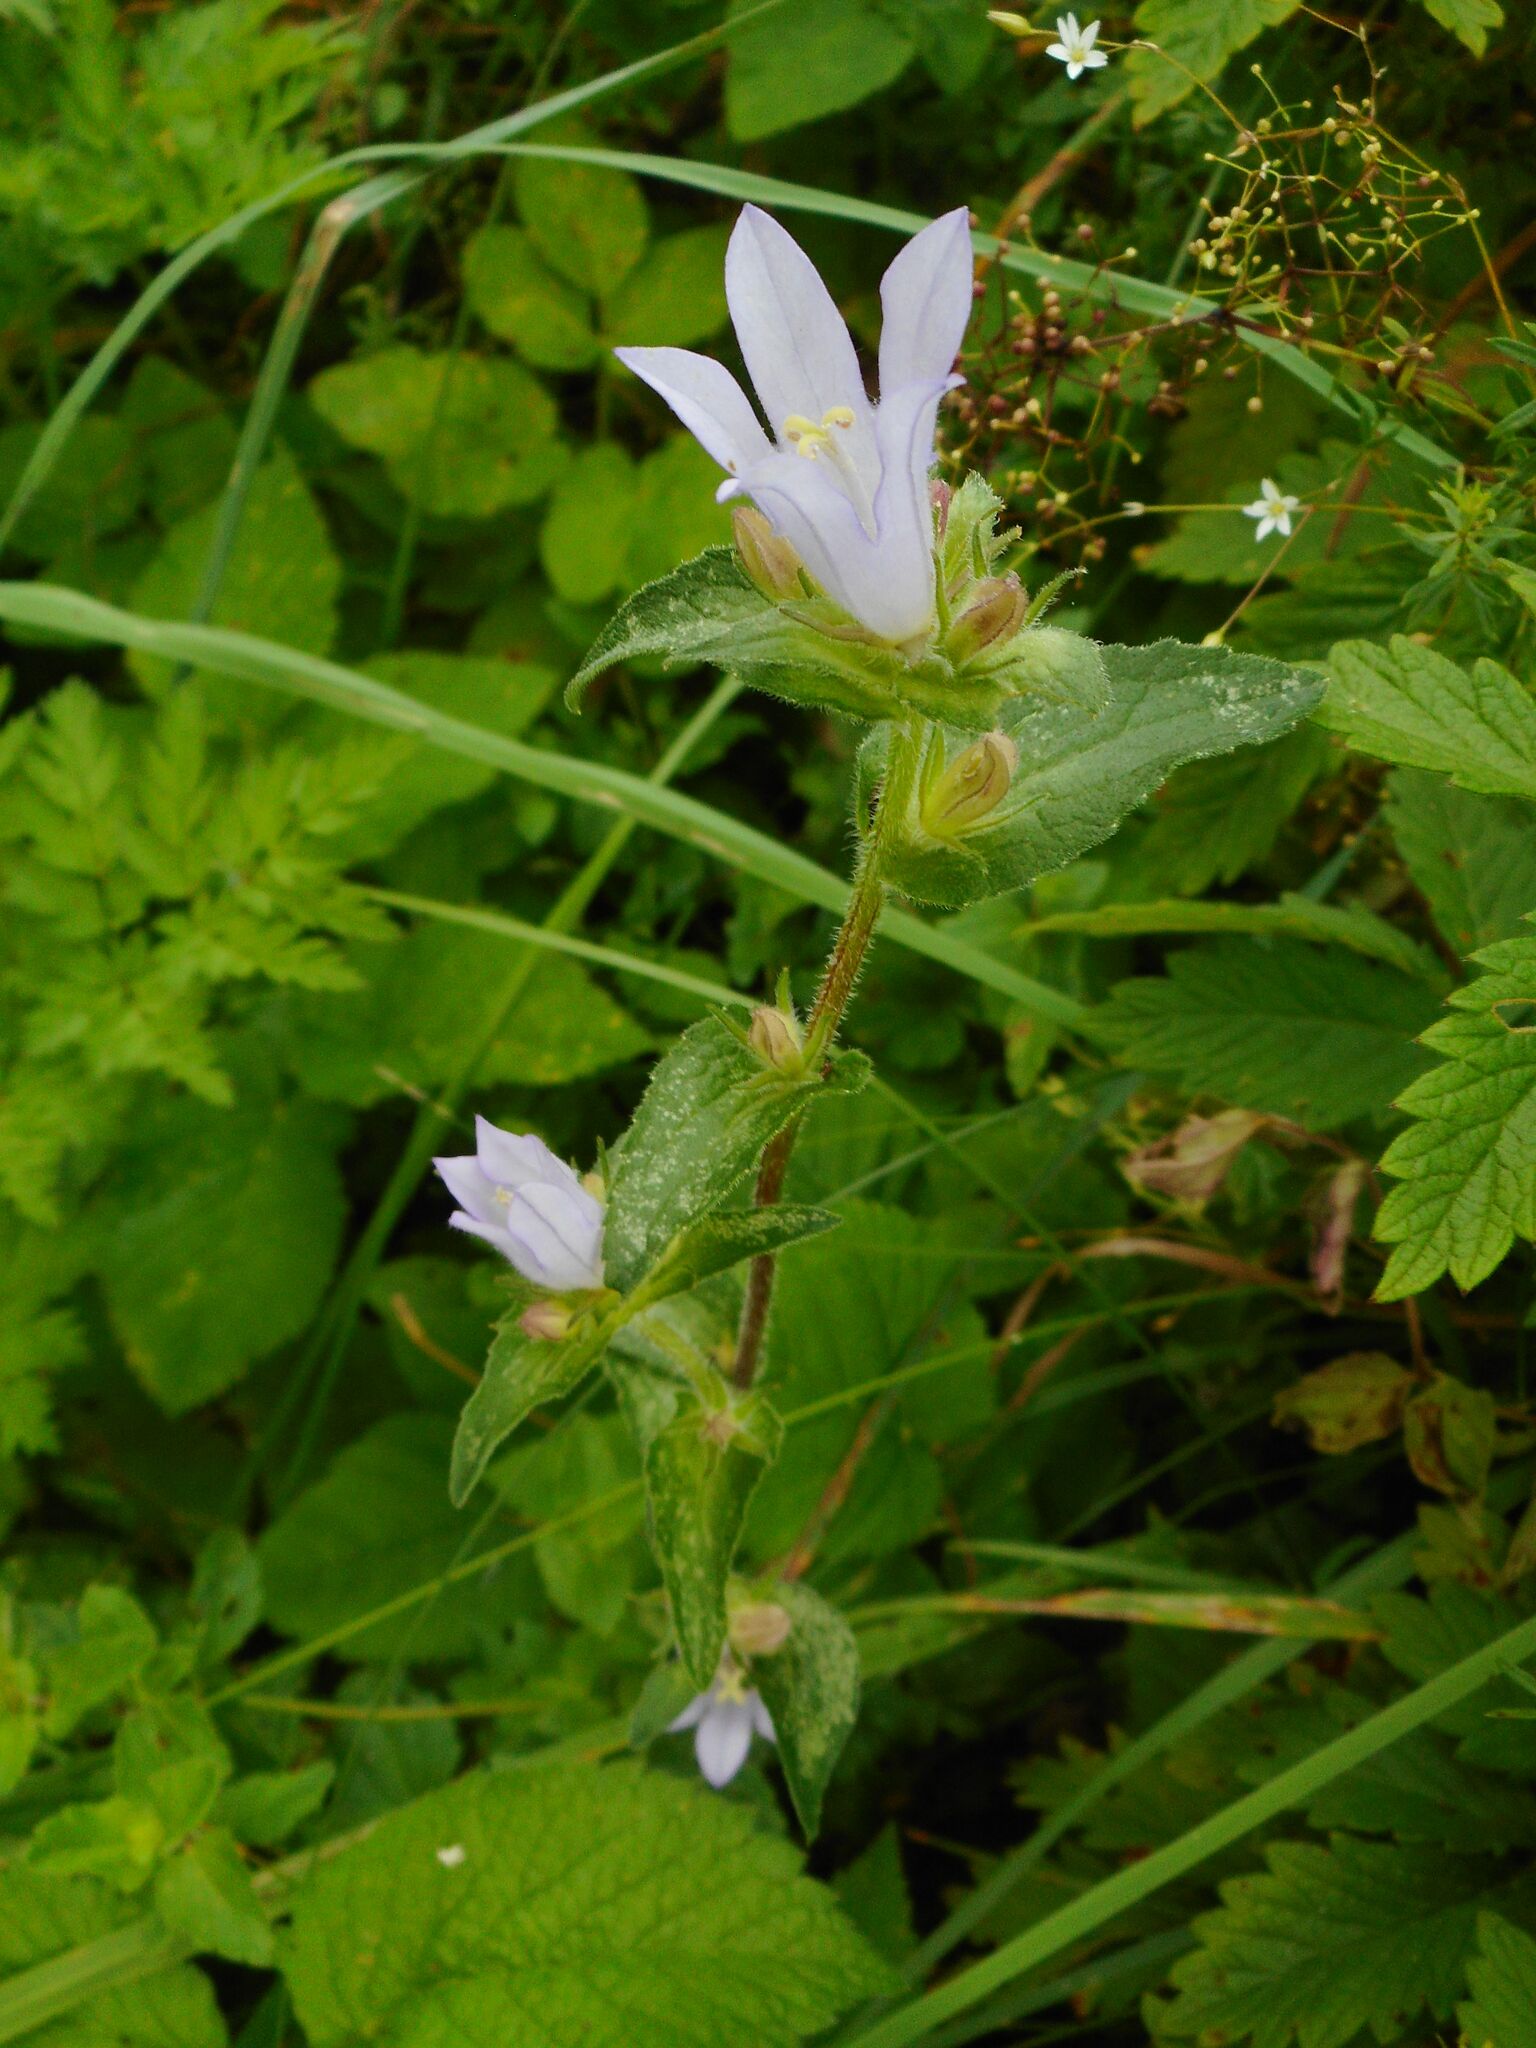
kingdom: Plantae
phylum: Tracheophyta
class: Magnoliopsida
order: Asterales
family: Campanulaceae
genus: Campanula
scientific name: Campanula glomerata
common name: Clustered bellflower
